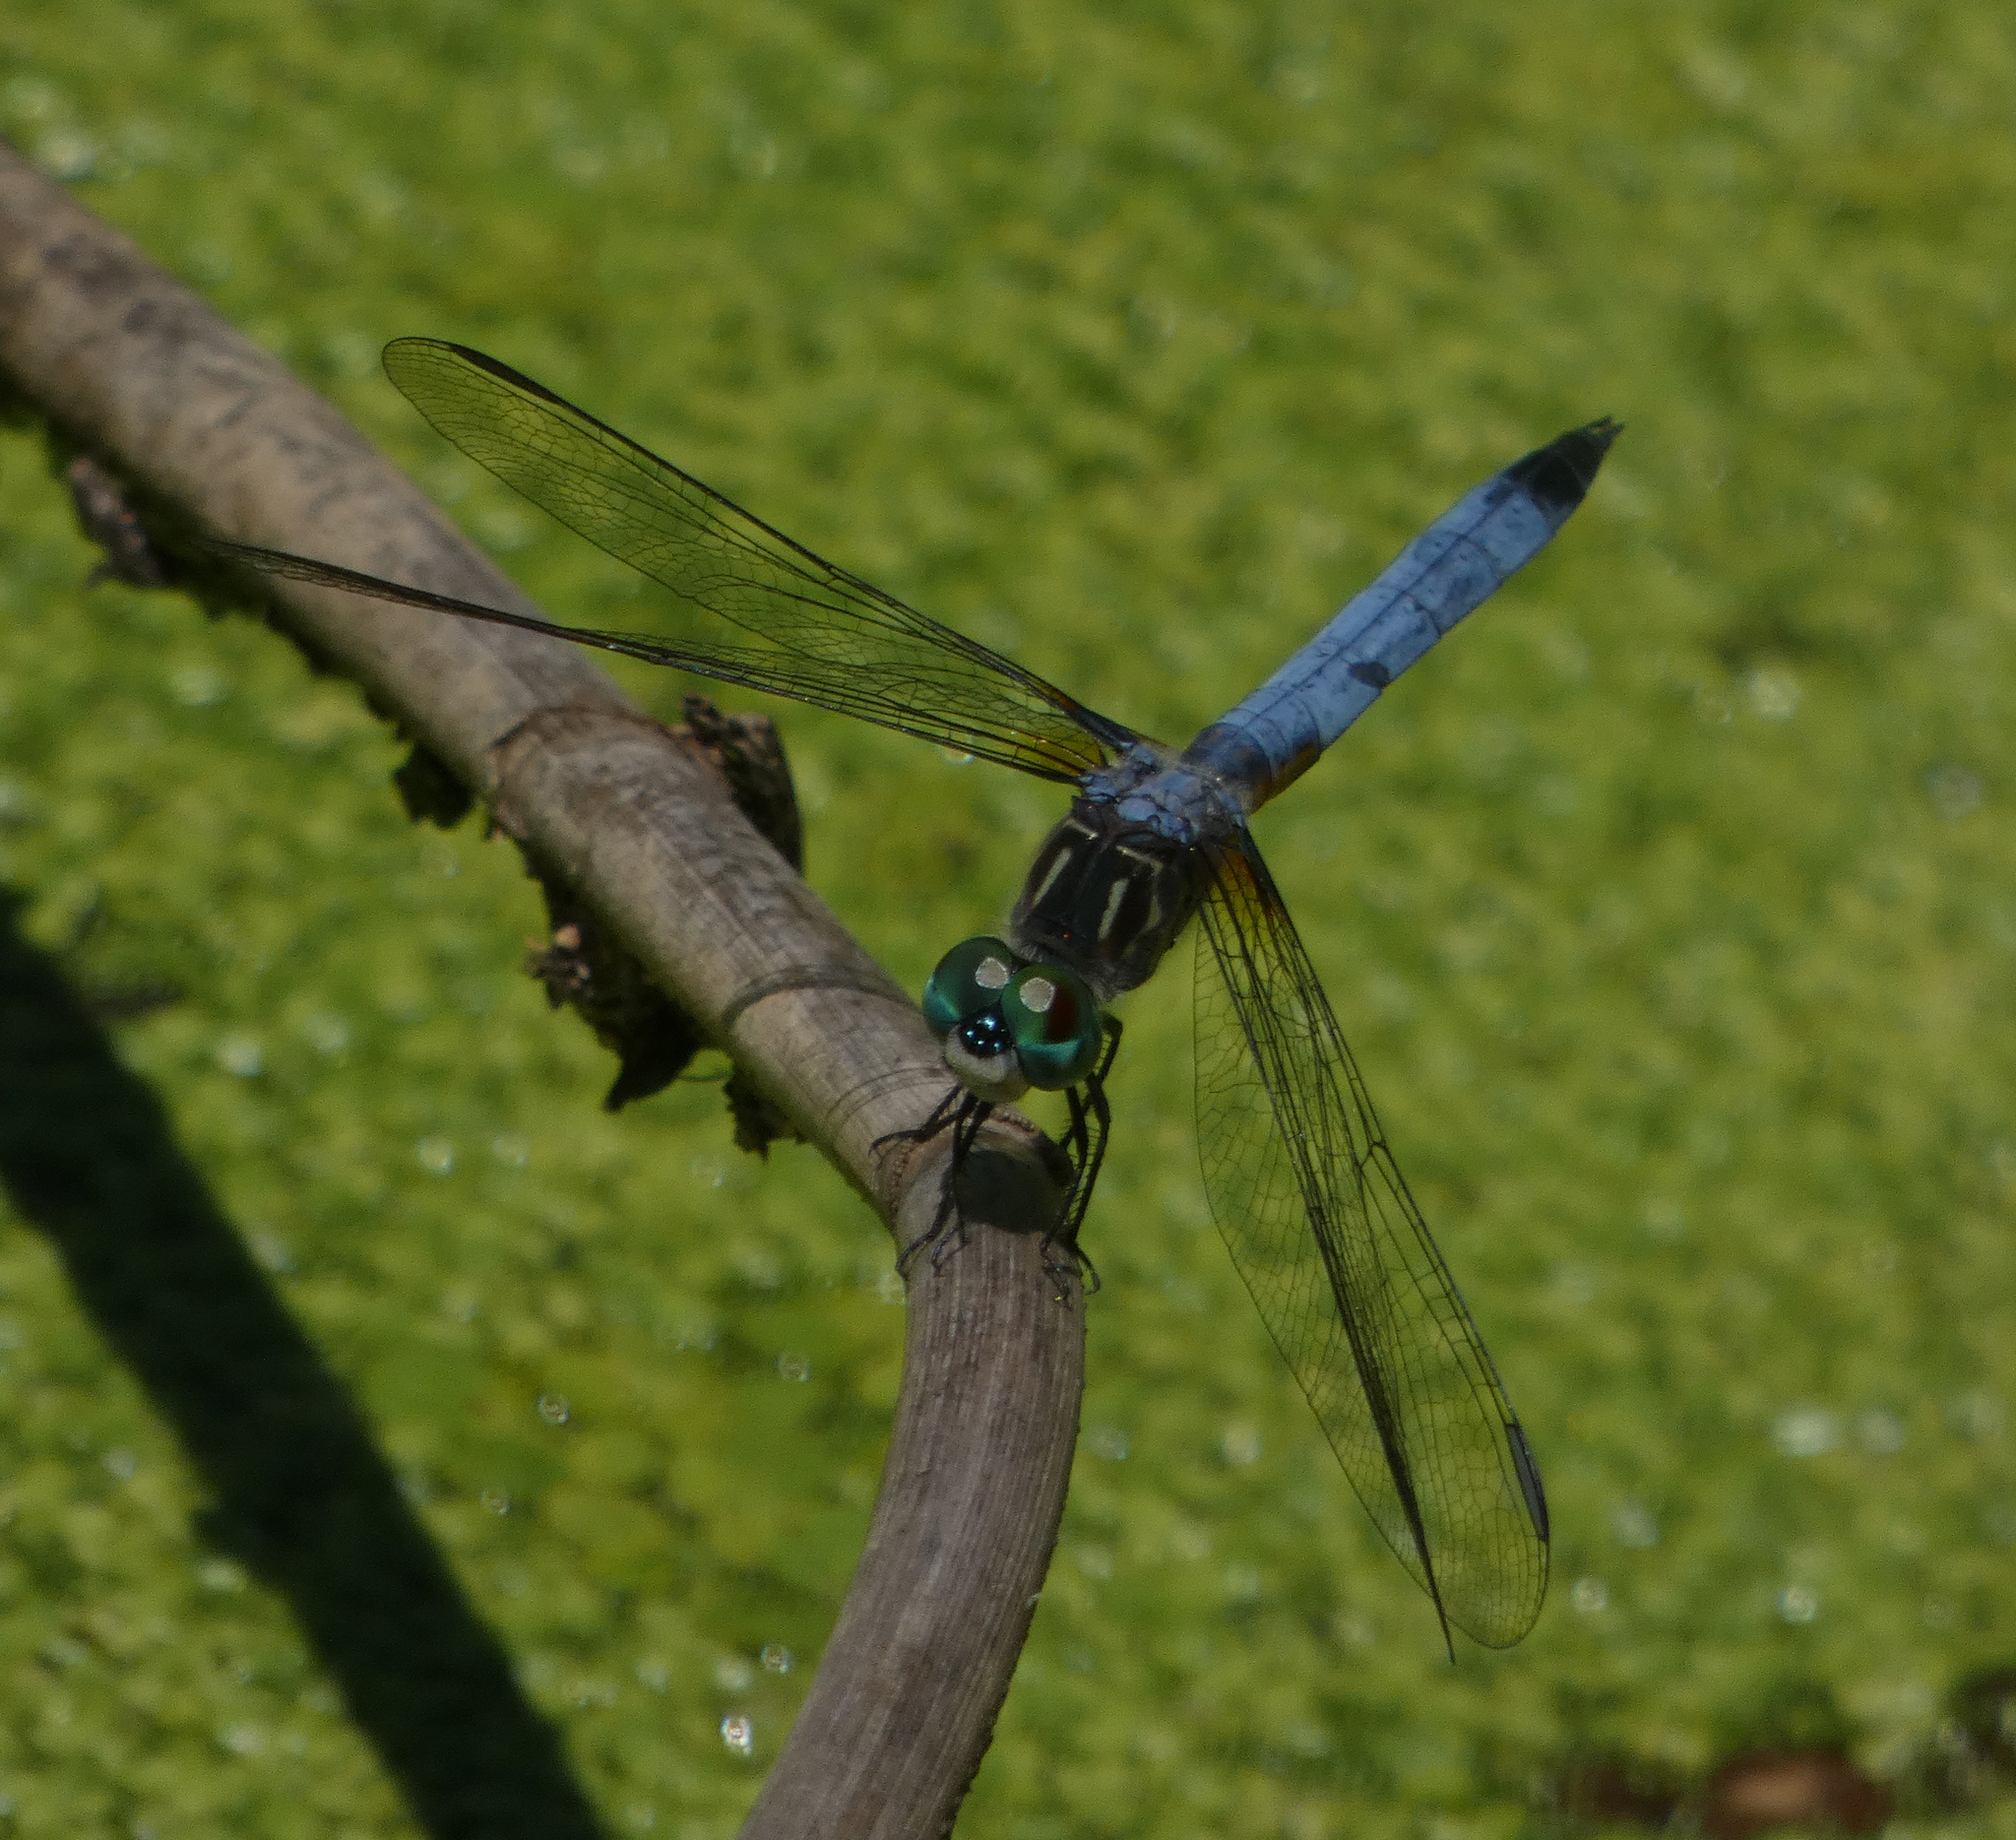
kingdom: Animalia
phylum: Arthropoda
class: Insecta
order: Odonata
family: Libellulidae
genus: Pachydiplax
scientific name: Pachydiplax longipennis
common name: Blue dasher
